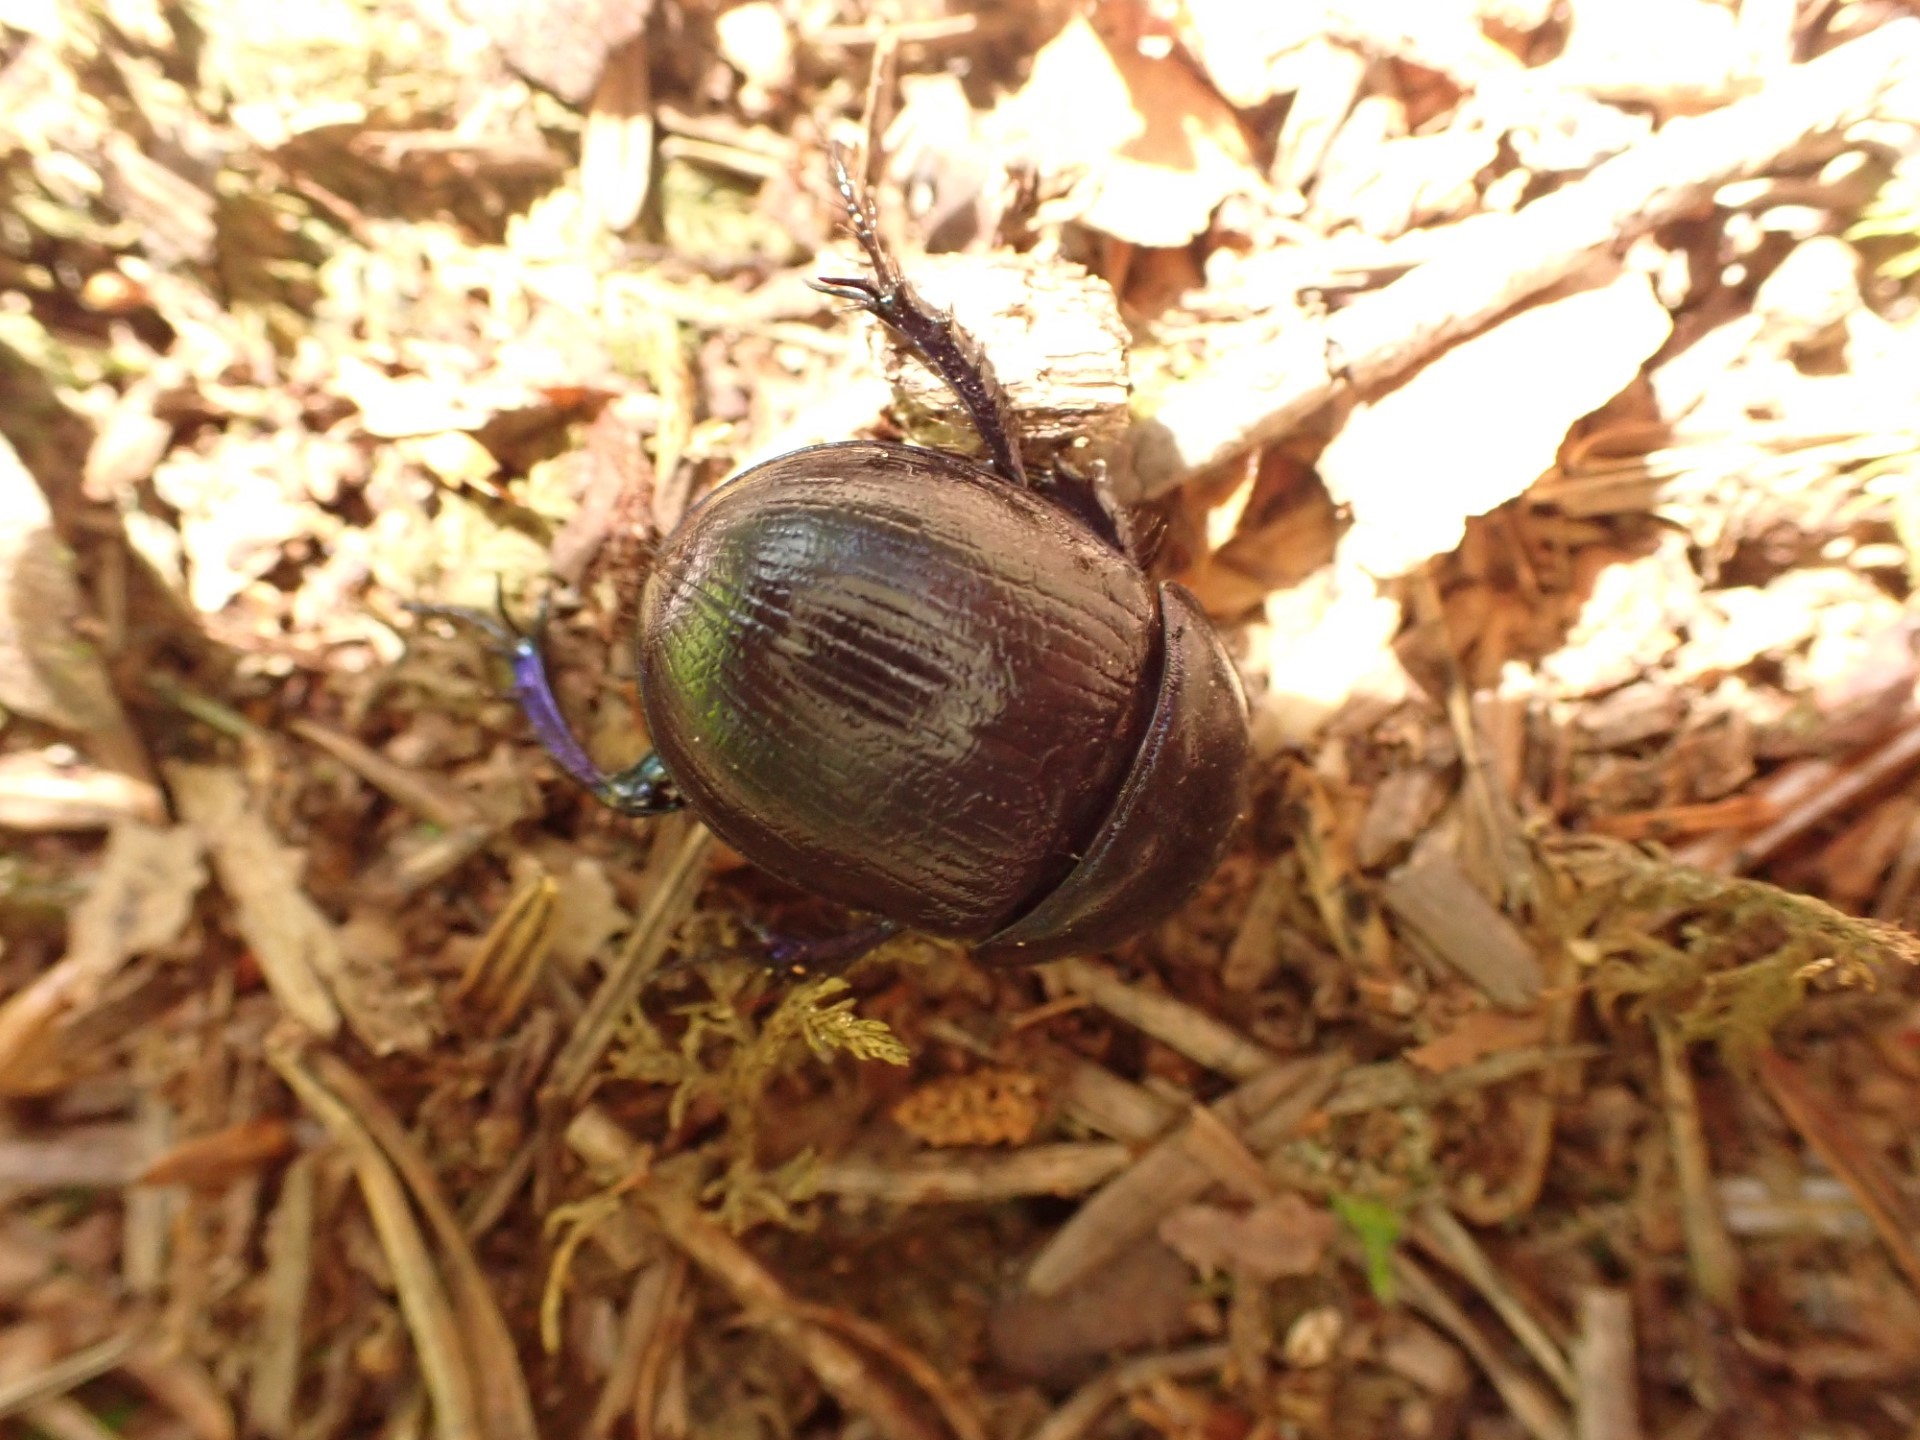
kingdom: Animalia
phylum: Arthropoda
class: Insecta
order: Coleoptera
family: Geotrupidae
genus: Anoplotrupes
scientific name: Anoplotrupes stercorosus
